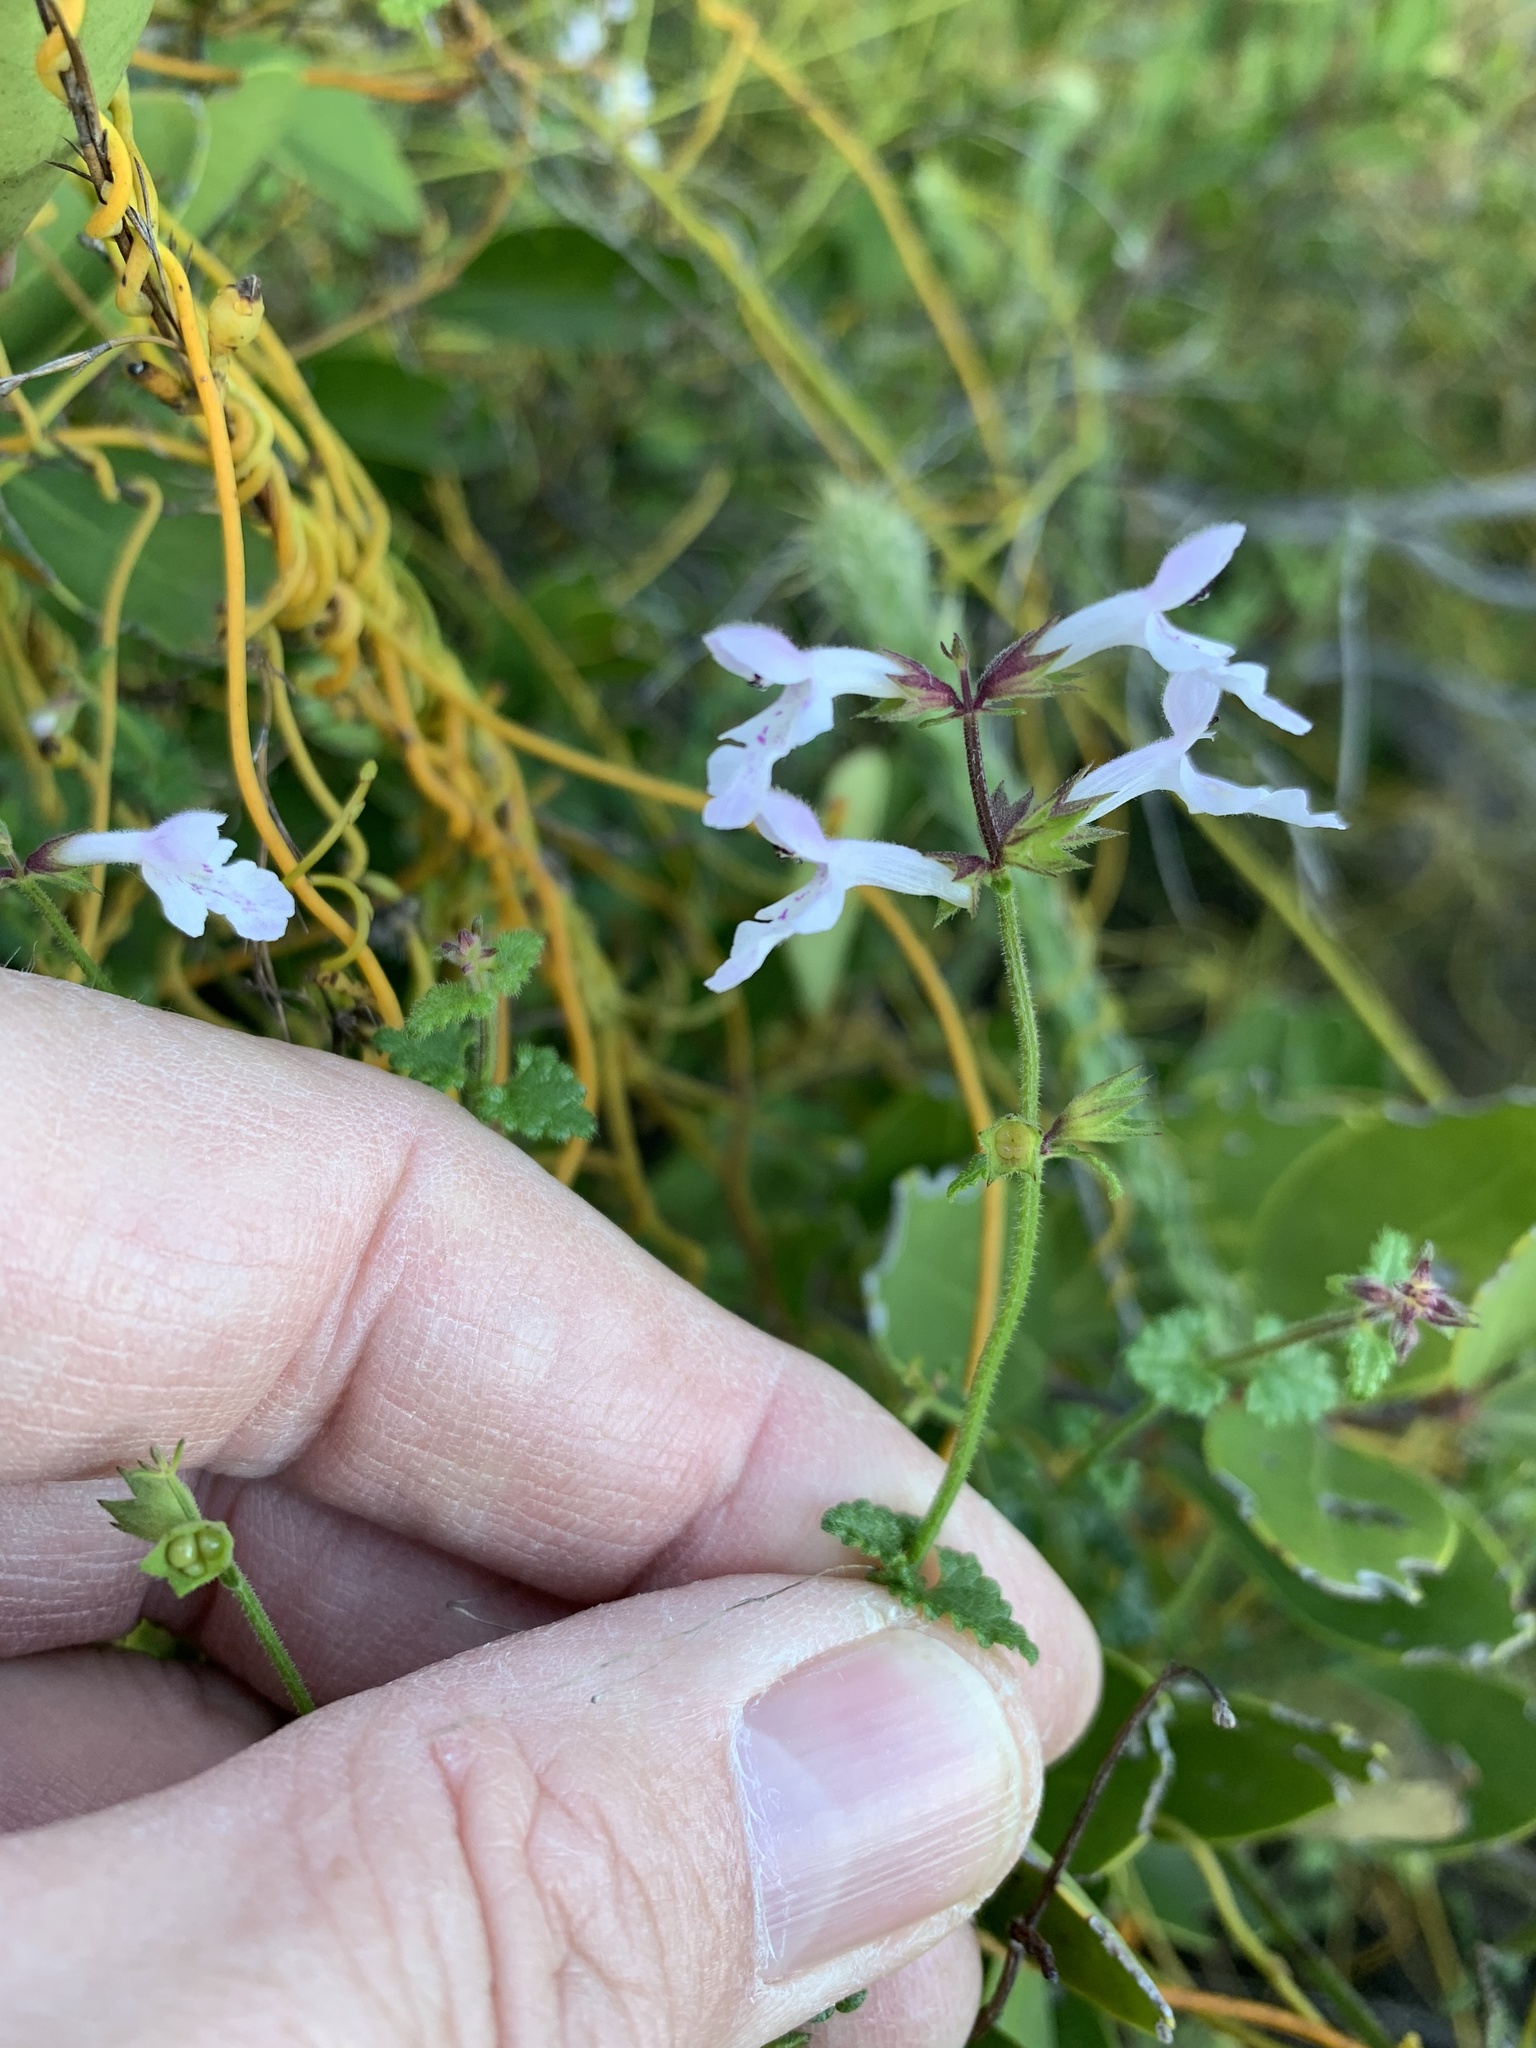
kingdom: Plantae
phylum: Tracheophyta
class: Magnoliopsida
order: Lamiales
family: Lamiaceae
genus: Stachys
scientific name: Stachys aethiopica
